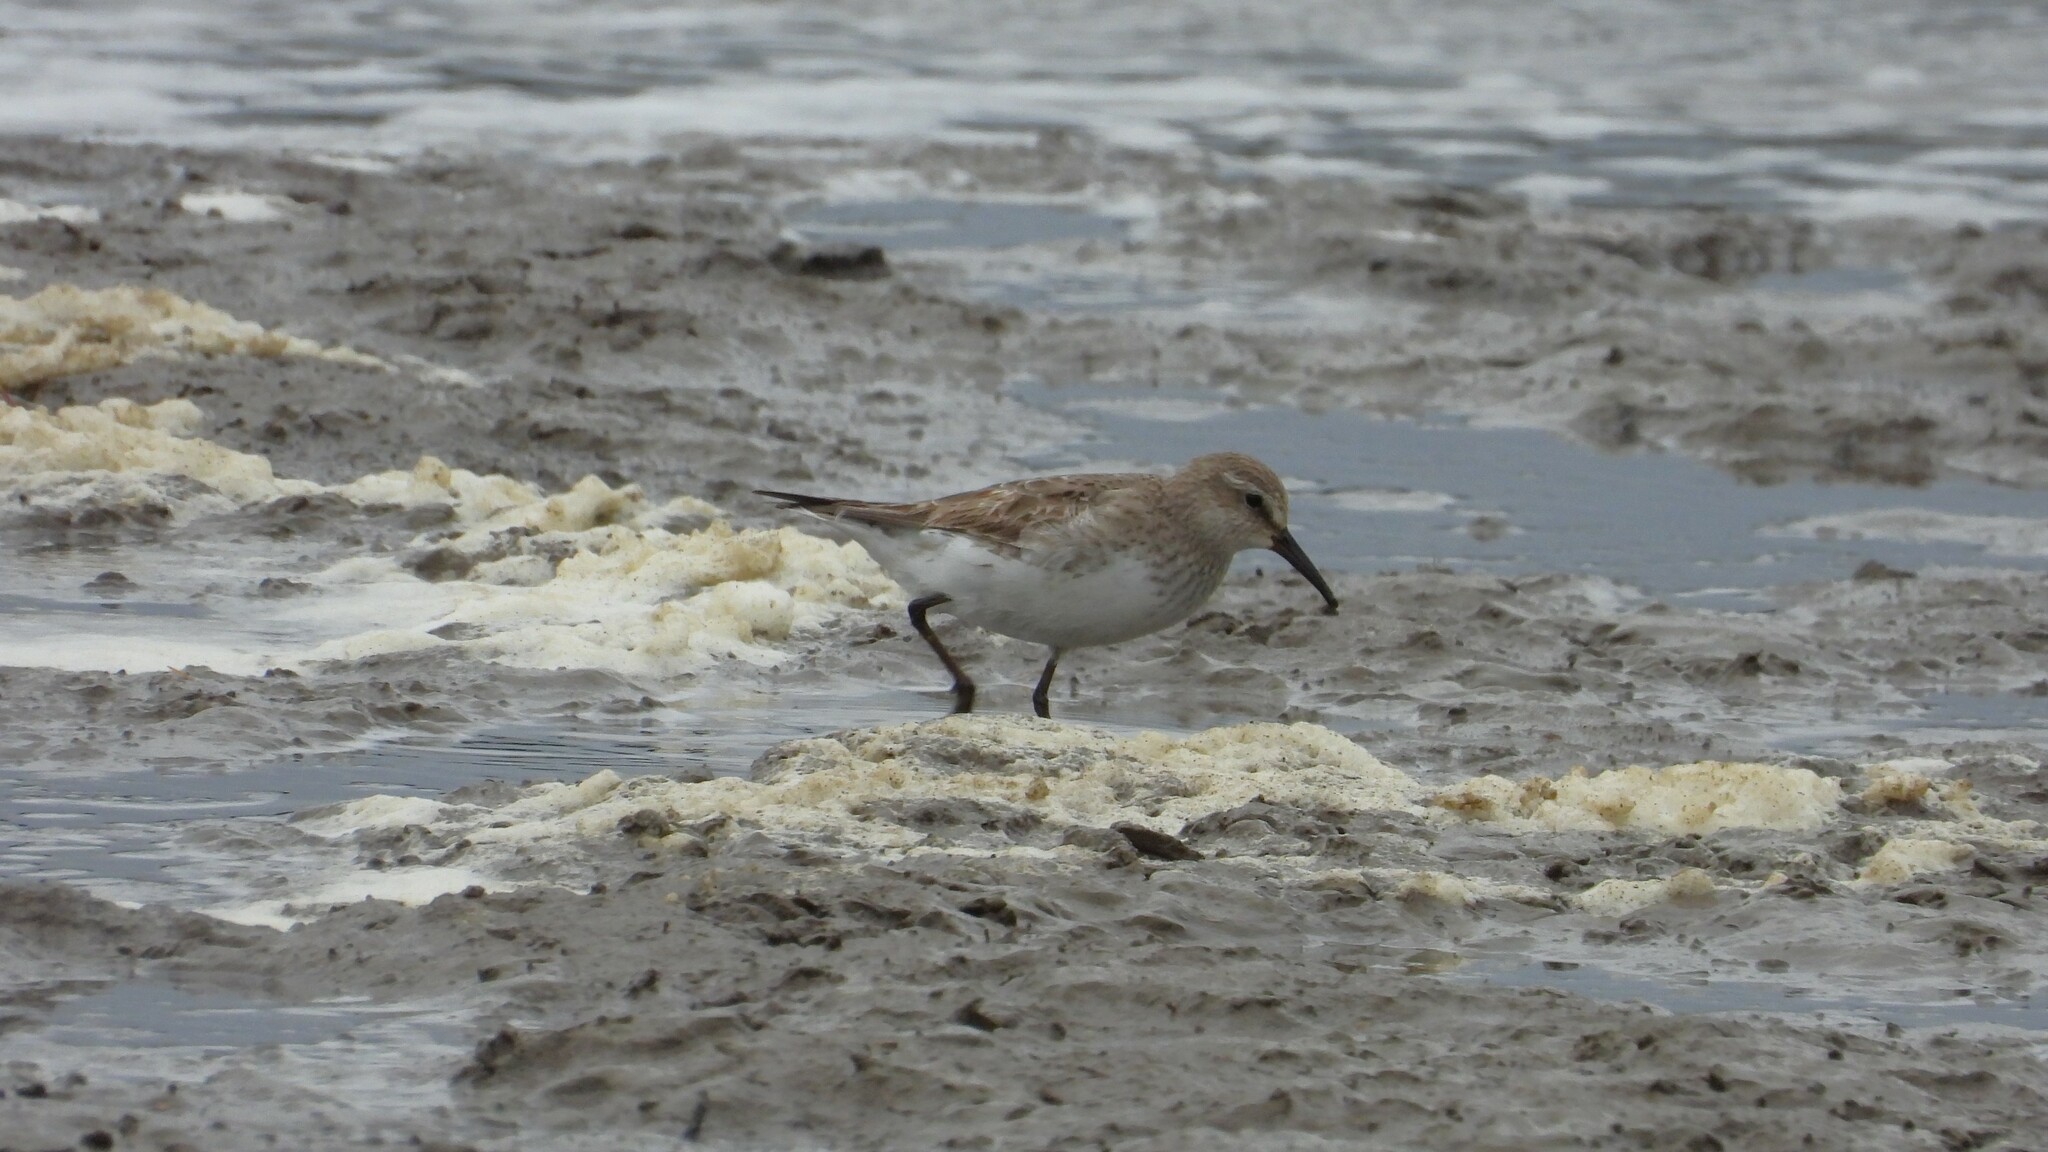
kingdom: Animalia
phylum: Chordata
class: Aves
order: Charadriiformes
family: Scolopacidae
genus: Calidris
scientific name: Calidris fuscicollis
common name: White-rumped sandpiper
